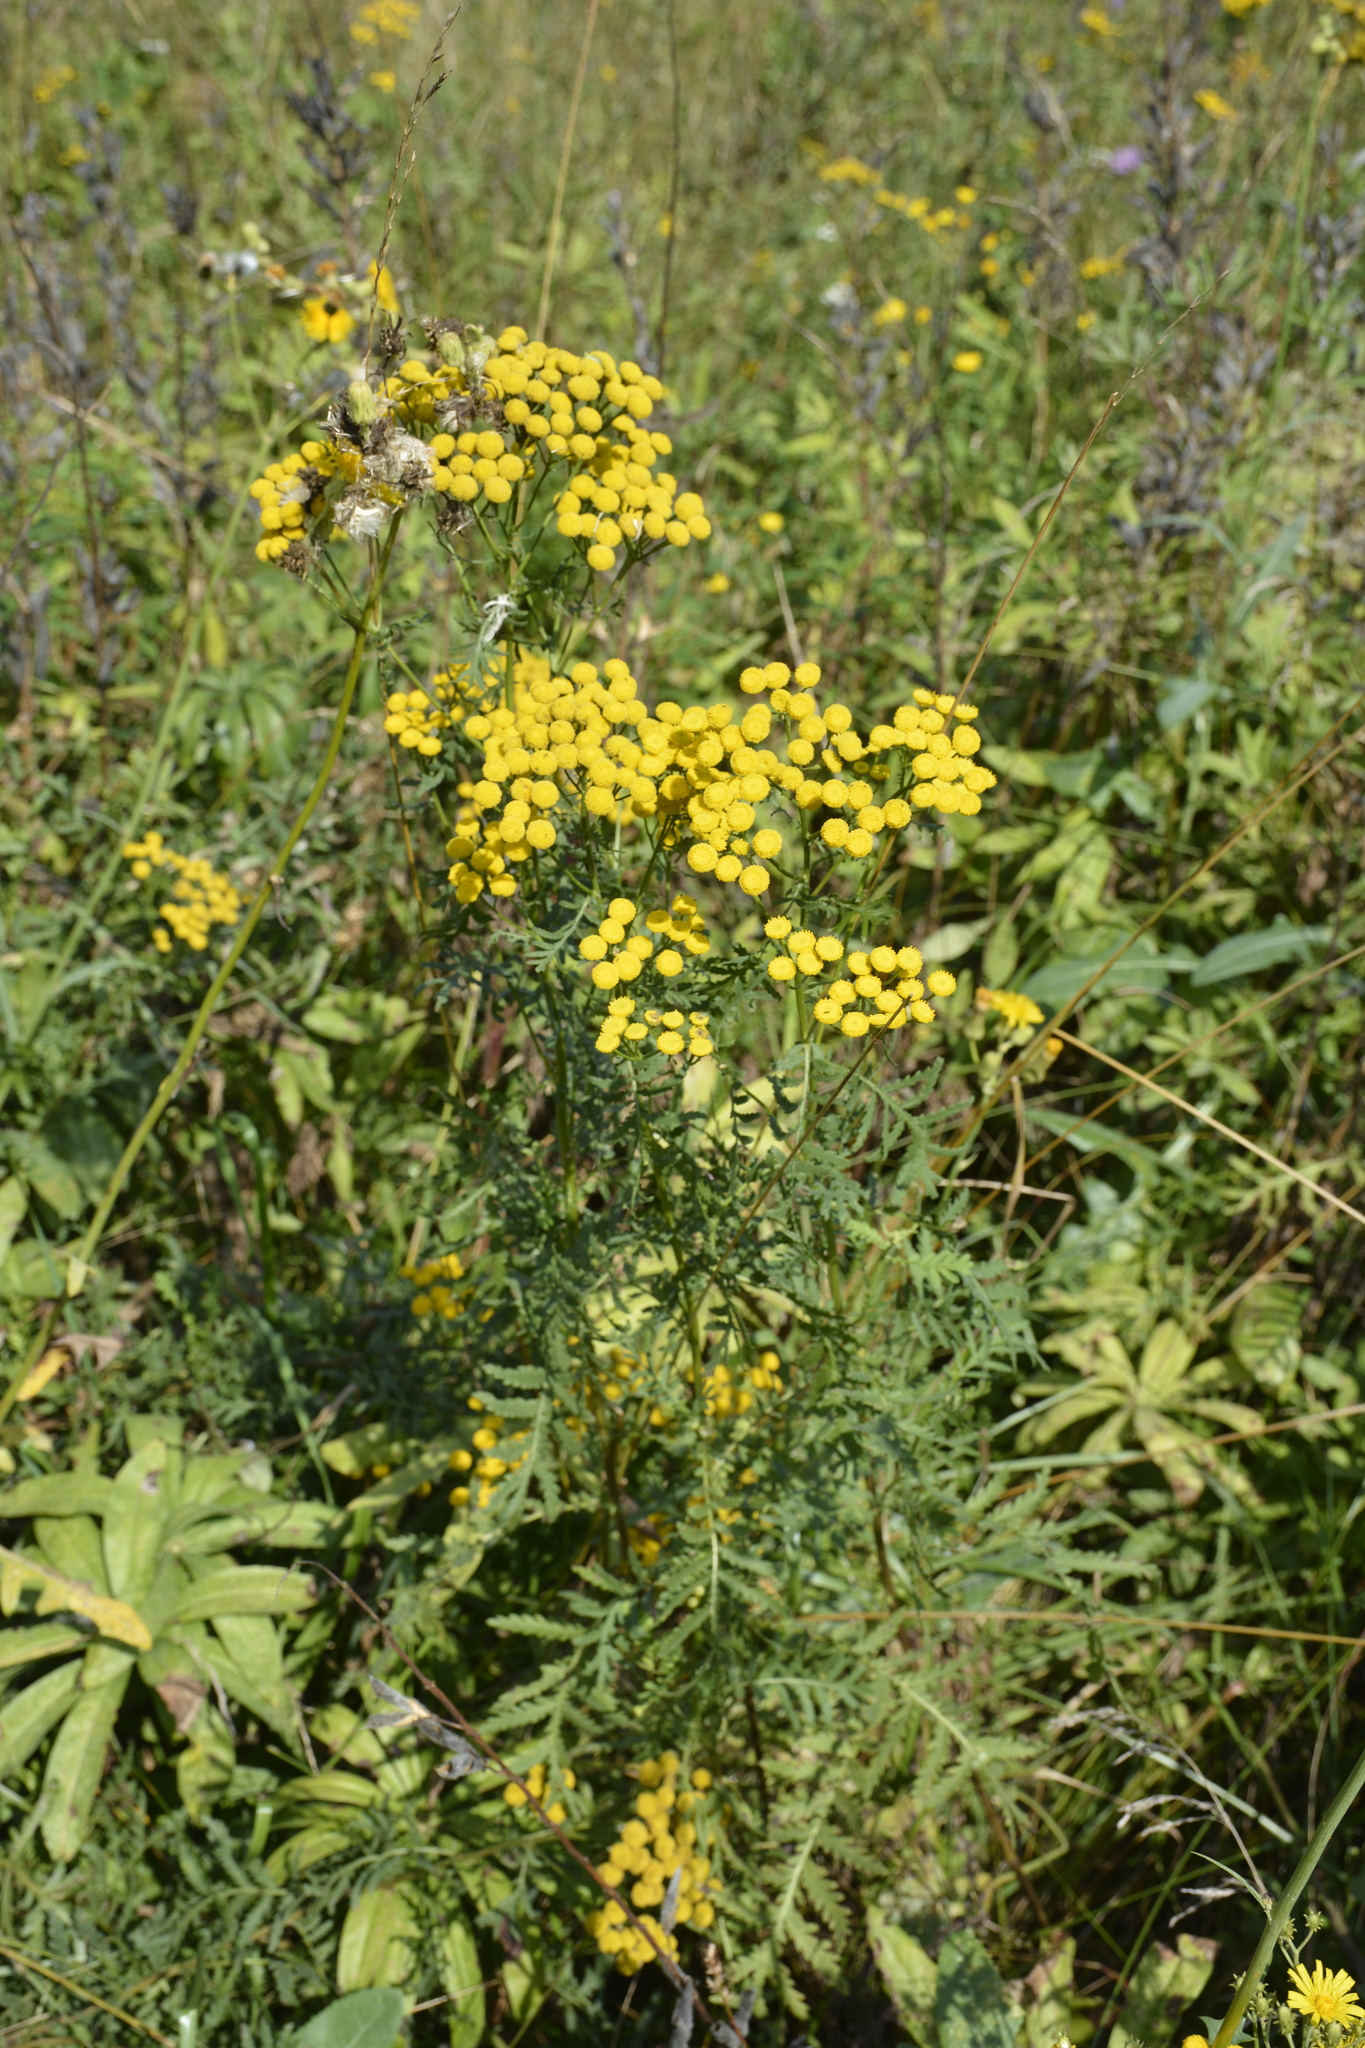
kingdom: Plantae
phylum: Tracheophyta
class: Magnoliopsida
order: Asterales
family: Asteraceae
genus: Tanacetum
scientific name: Tanacetum vulgare
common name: Common tansy
